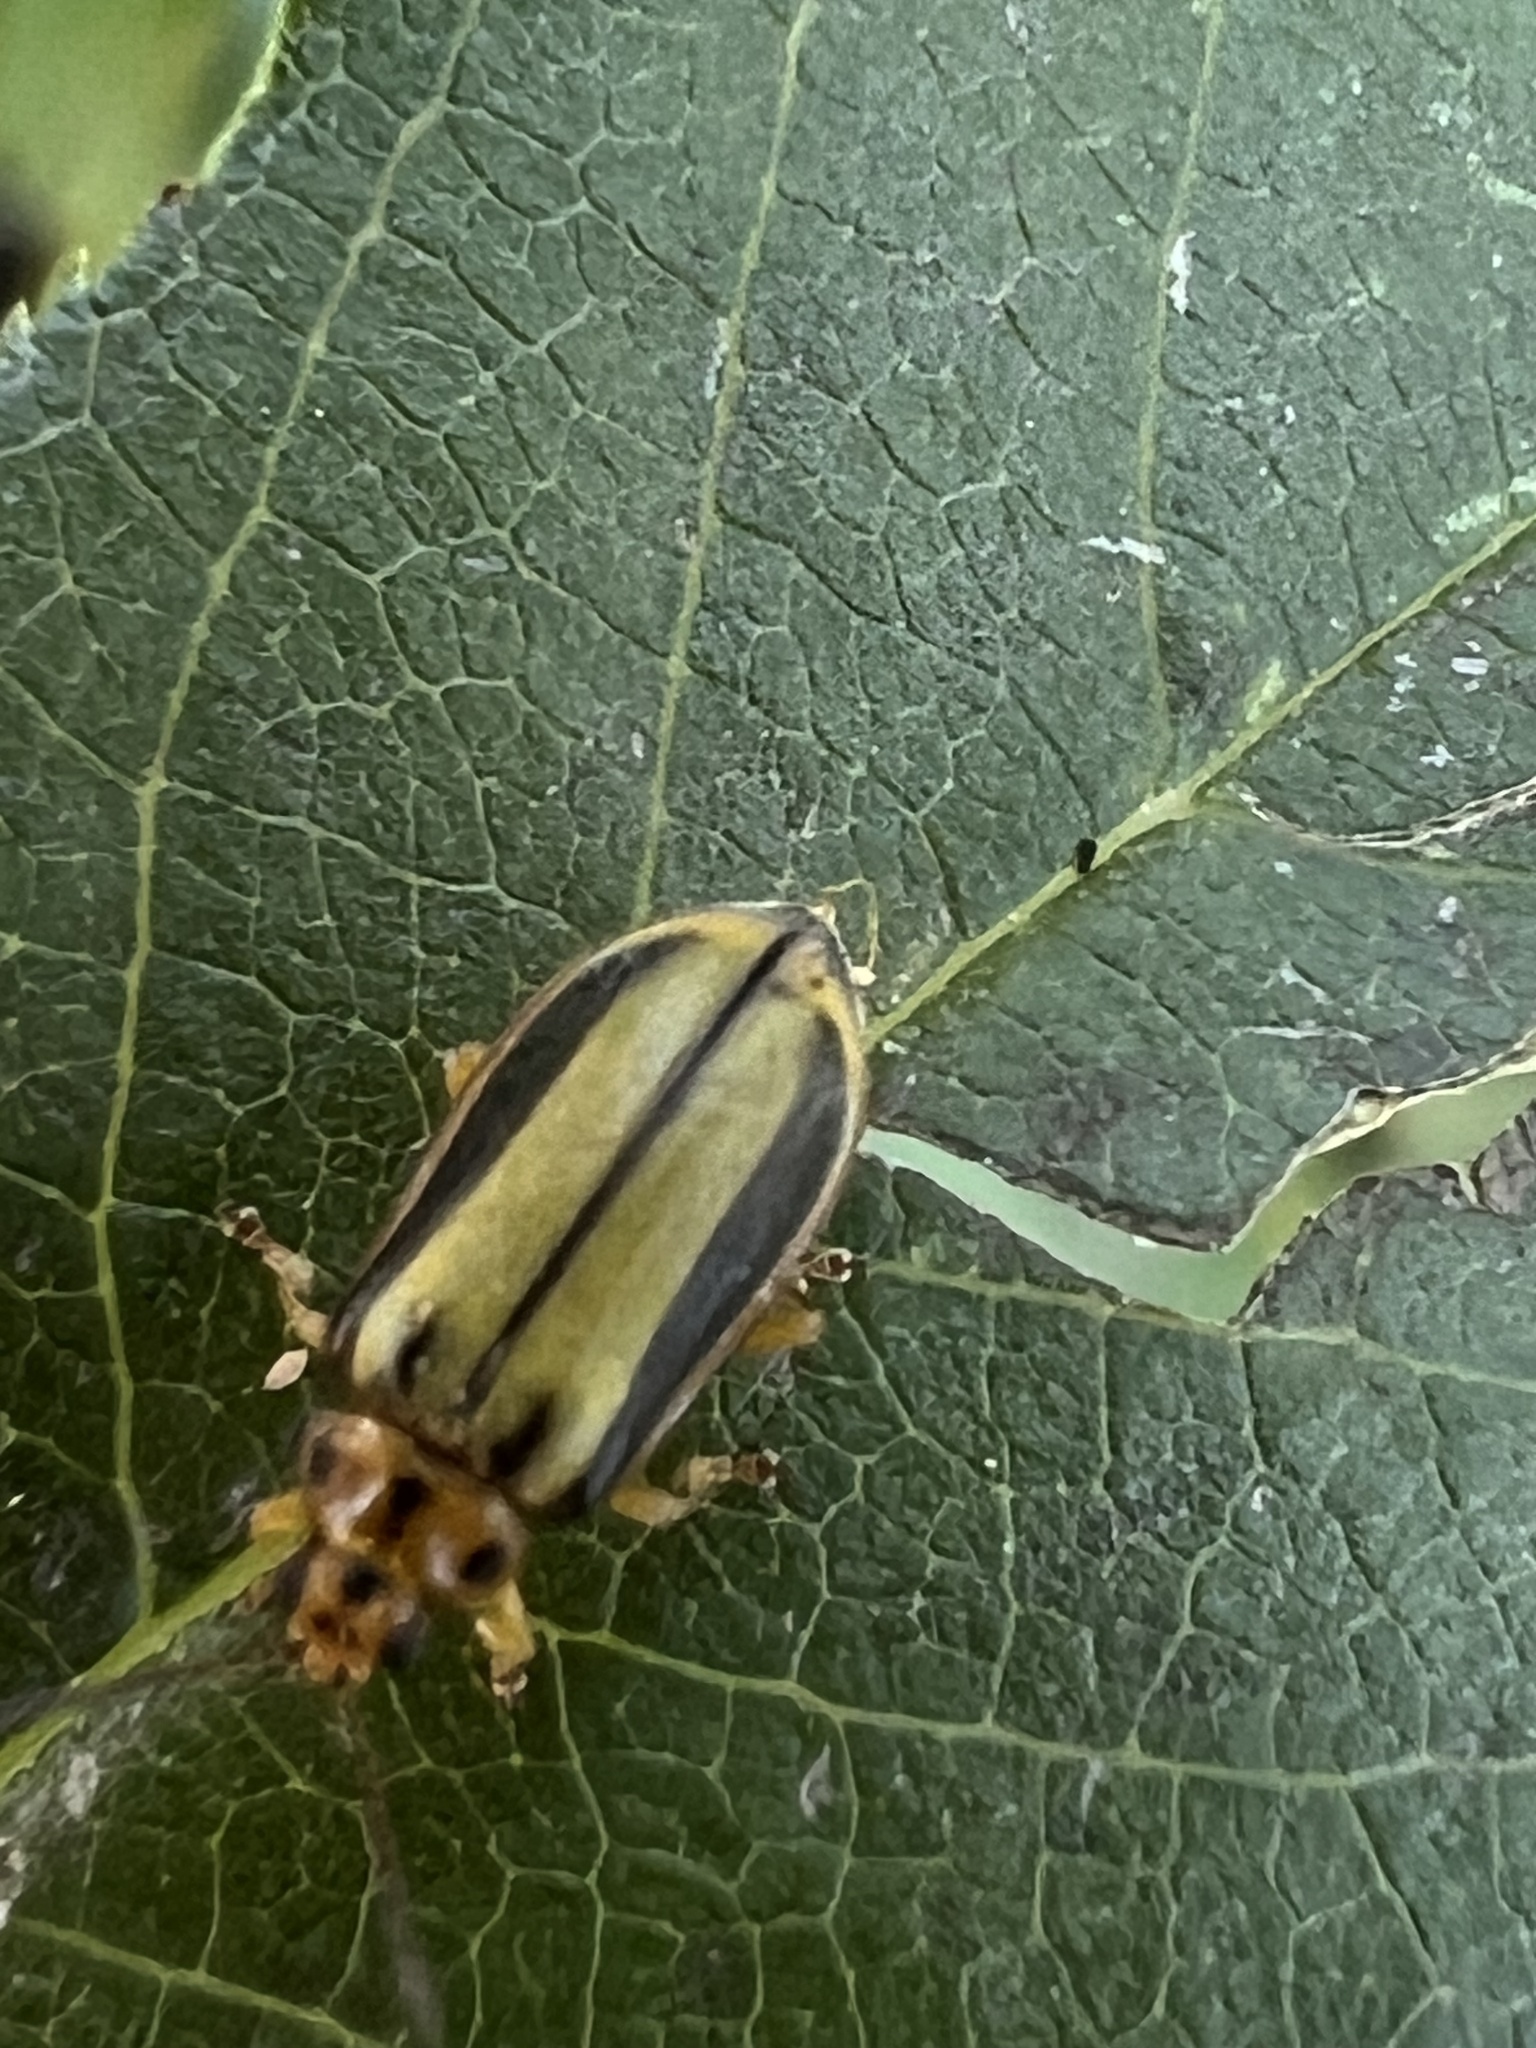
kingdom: Animalia
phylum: Arthropoda
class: Insecta
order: Coleoptera
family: Chrysomelidae
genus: Xanthogaleruca
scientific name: Xanthogaleruca luteola
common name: Elm leaf beetle
